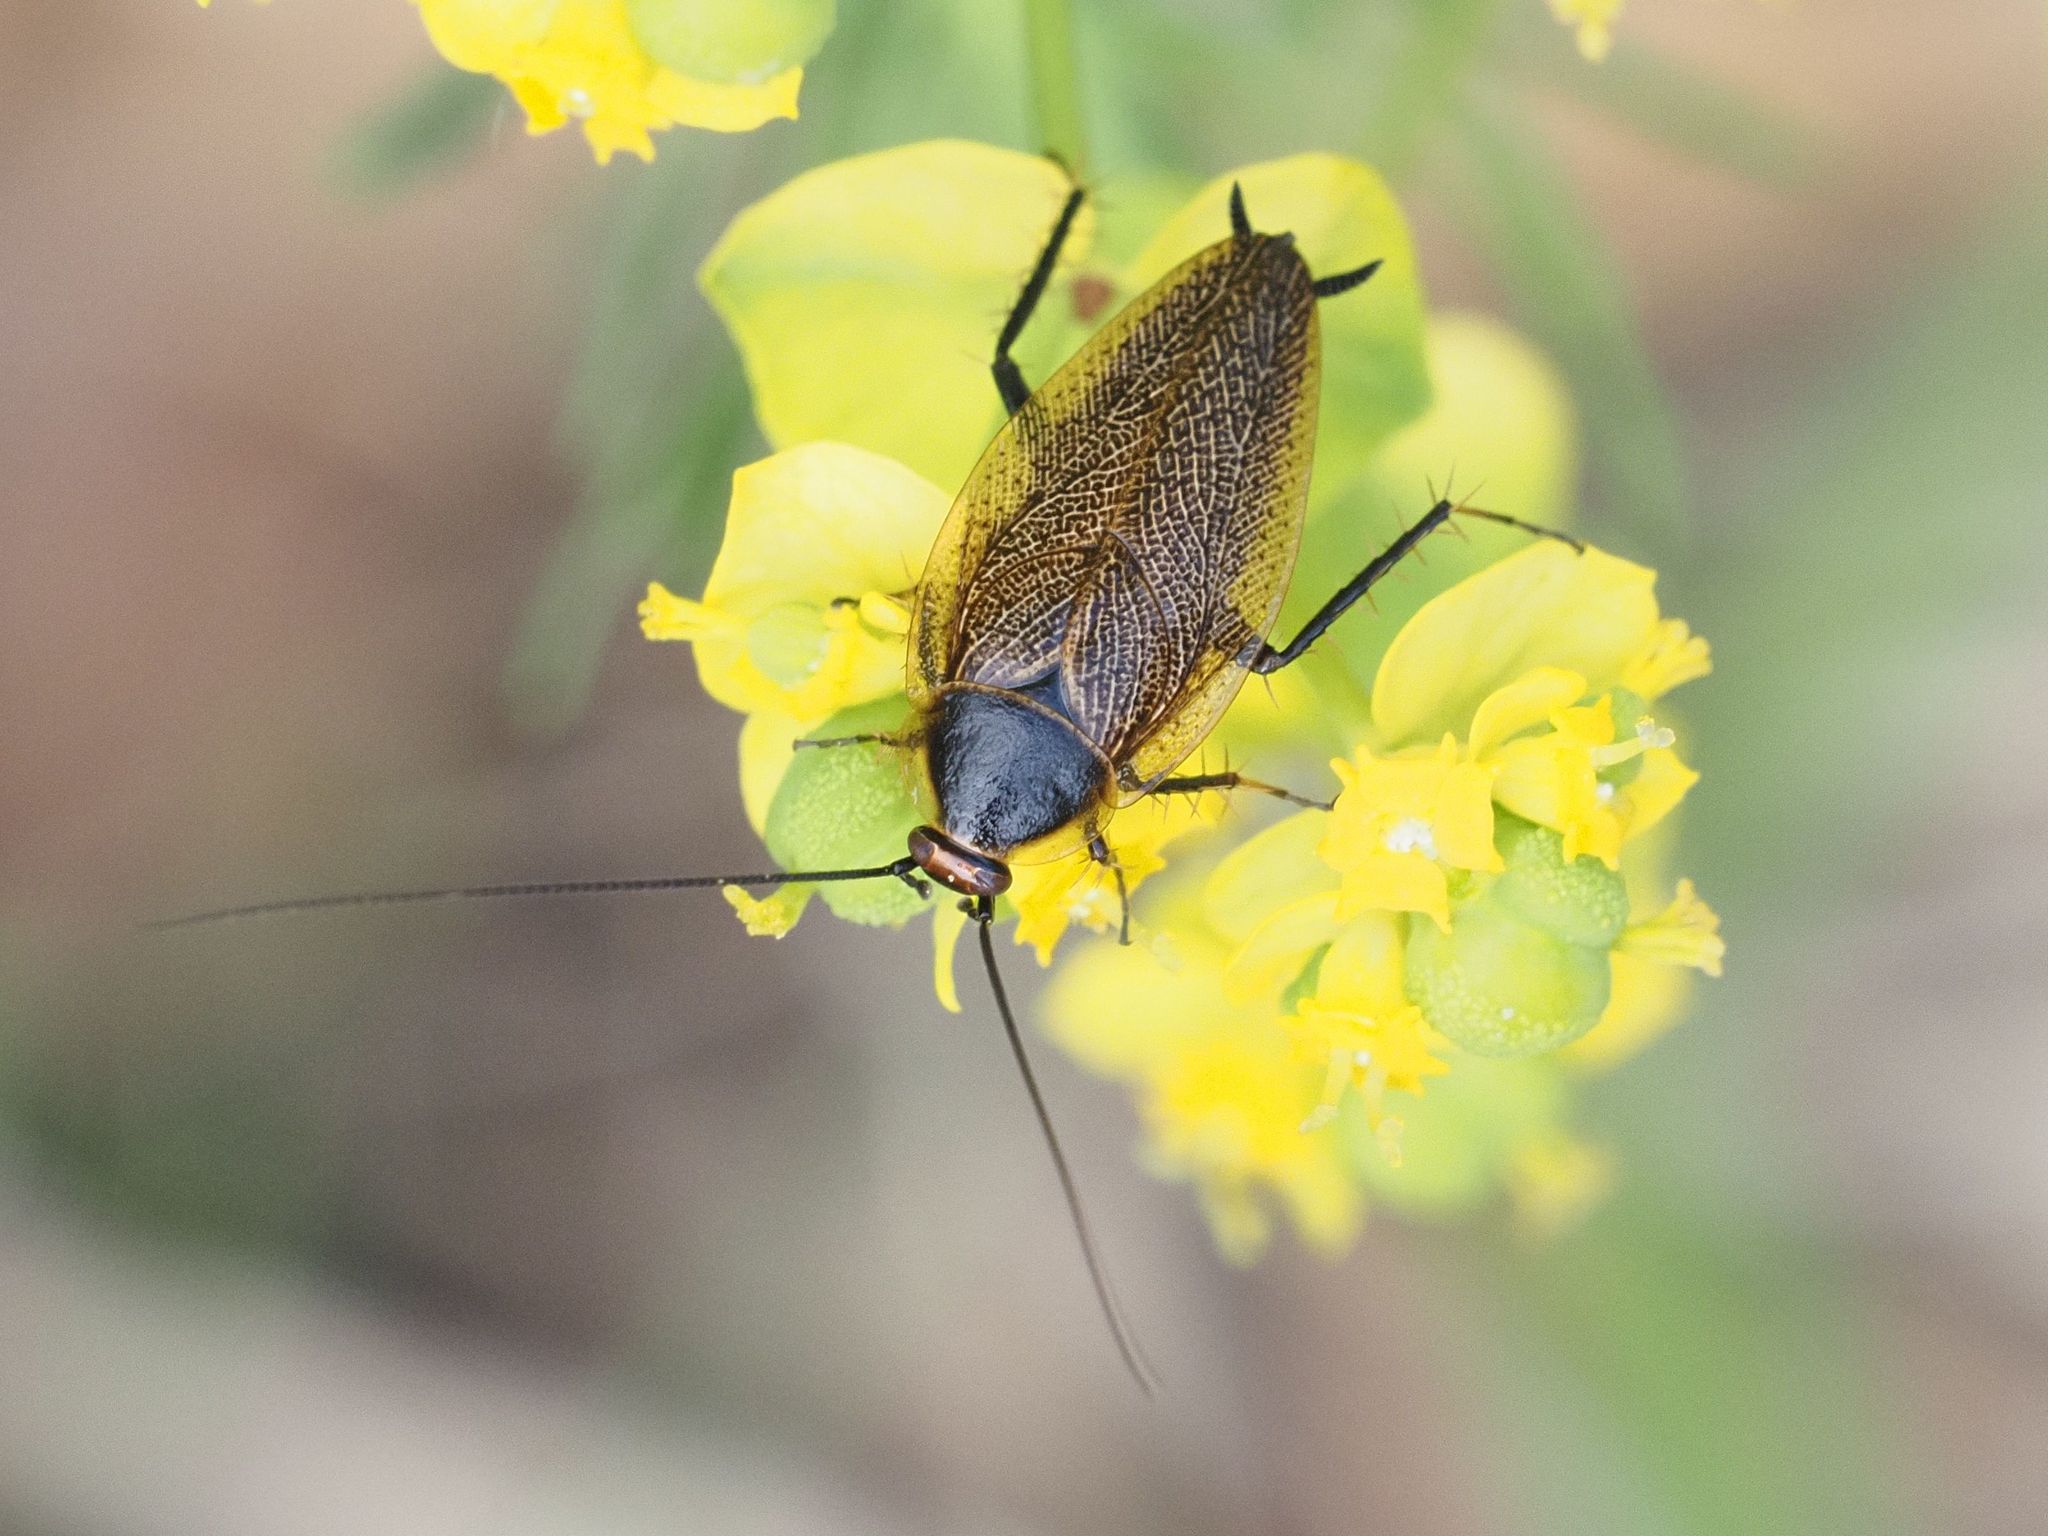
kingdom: Animalia
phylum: Arthropoda
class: Insecta
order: Blattodea
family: Ectobiidae
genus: Ectobius
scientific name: Ectobius erythronotus
